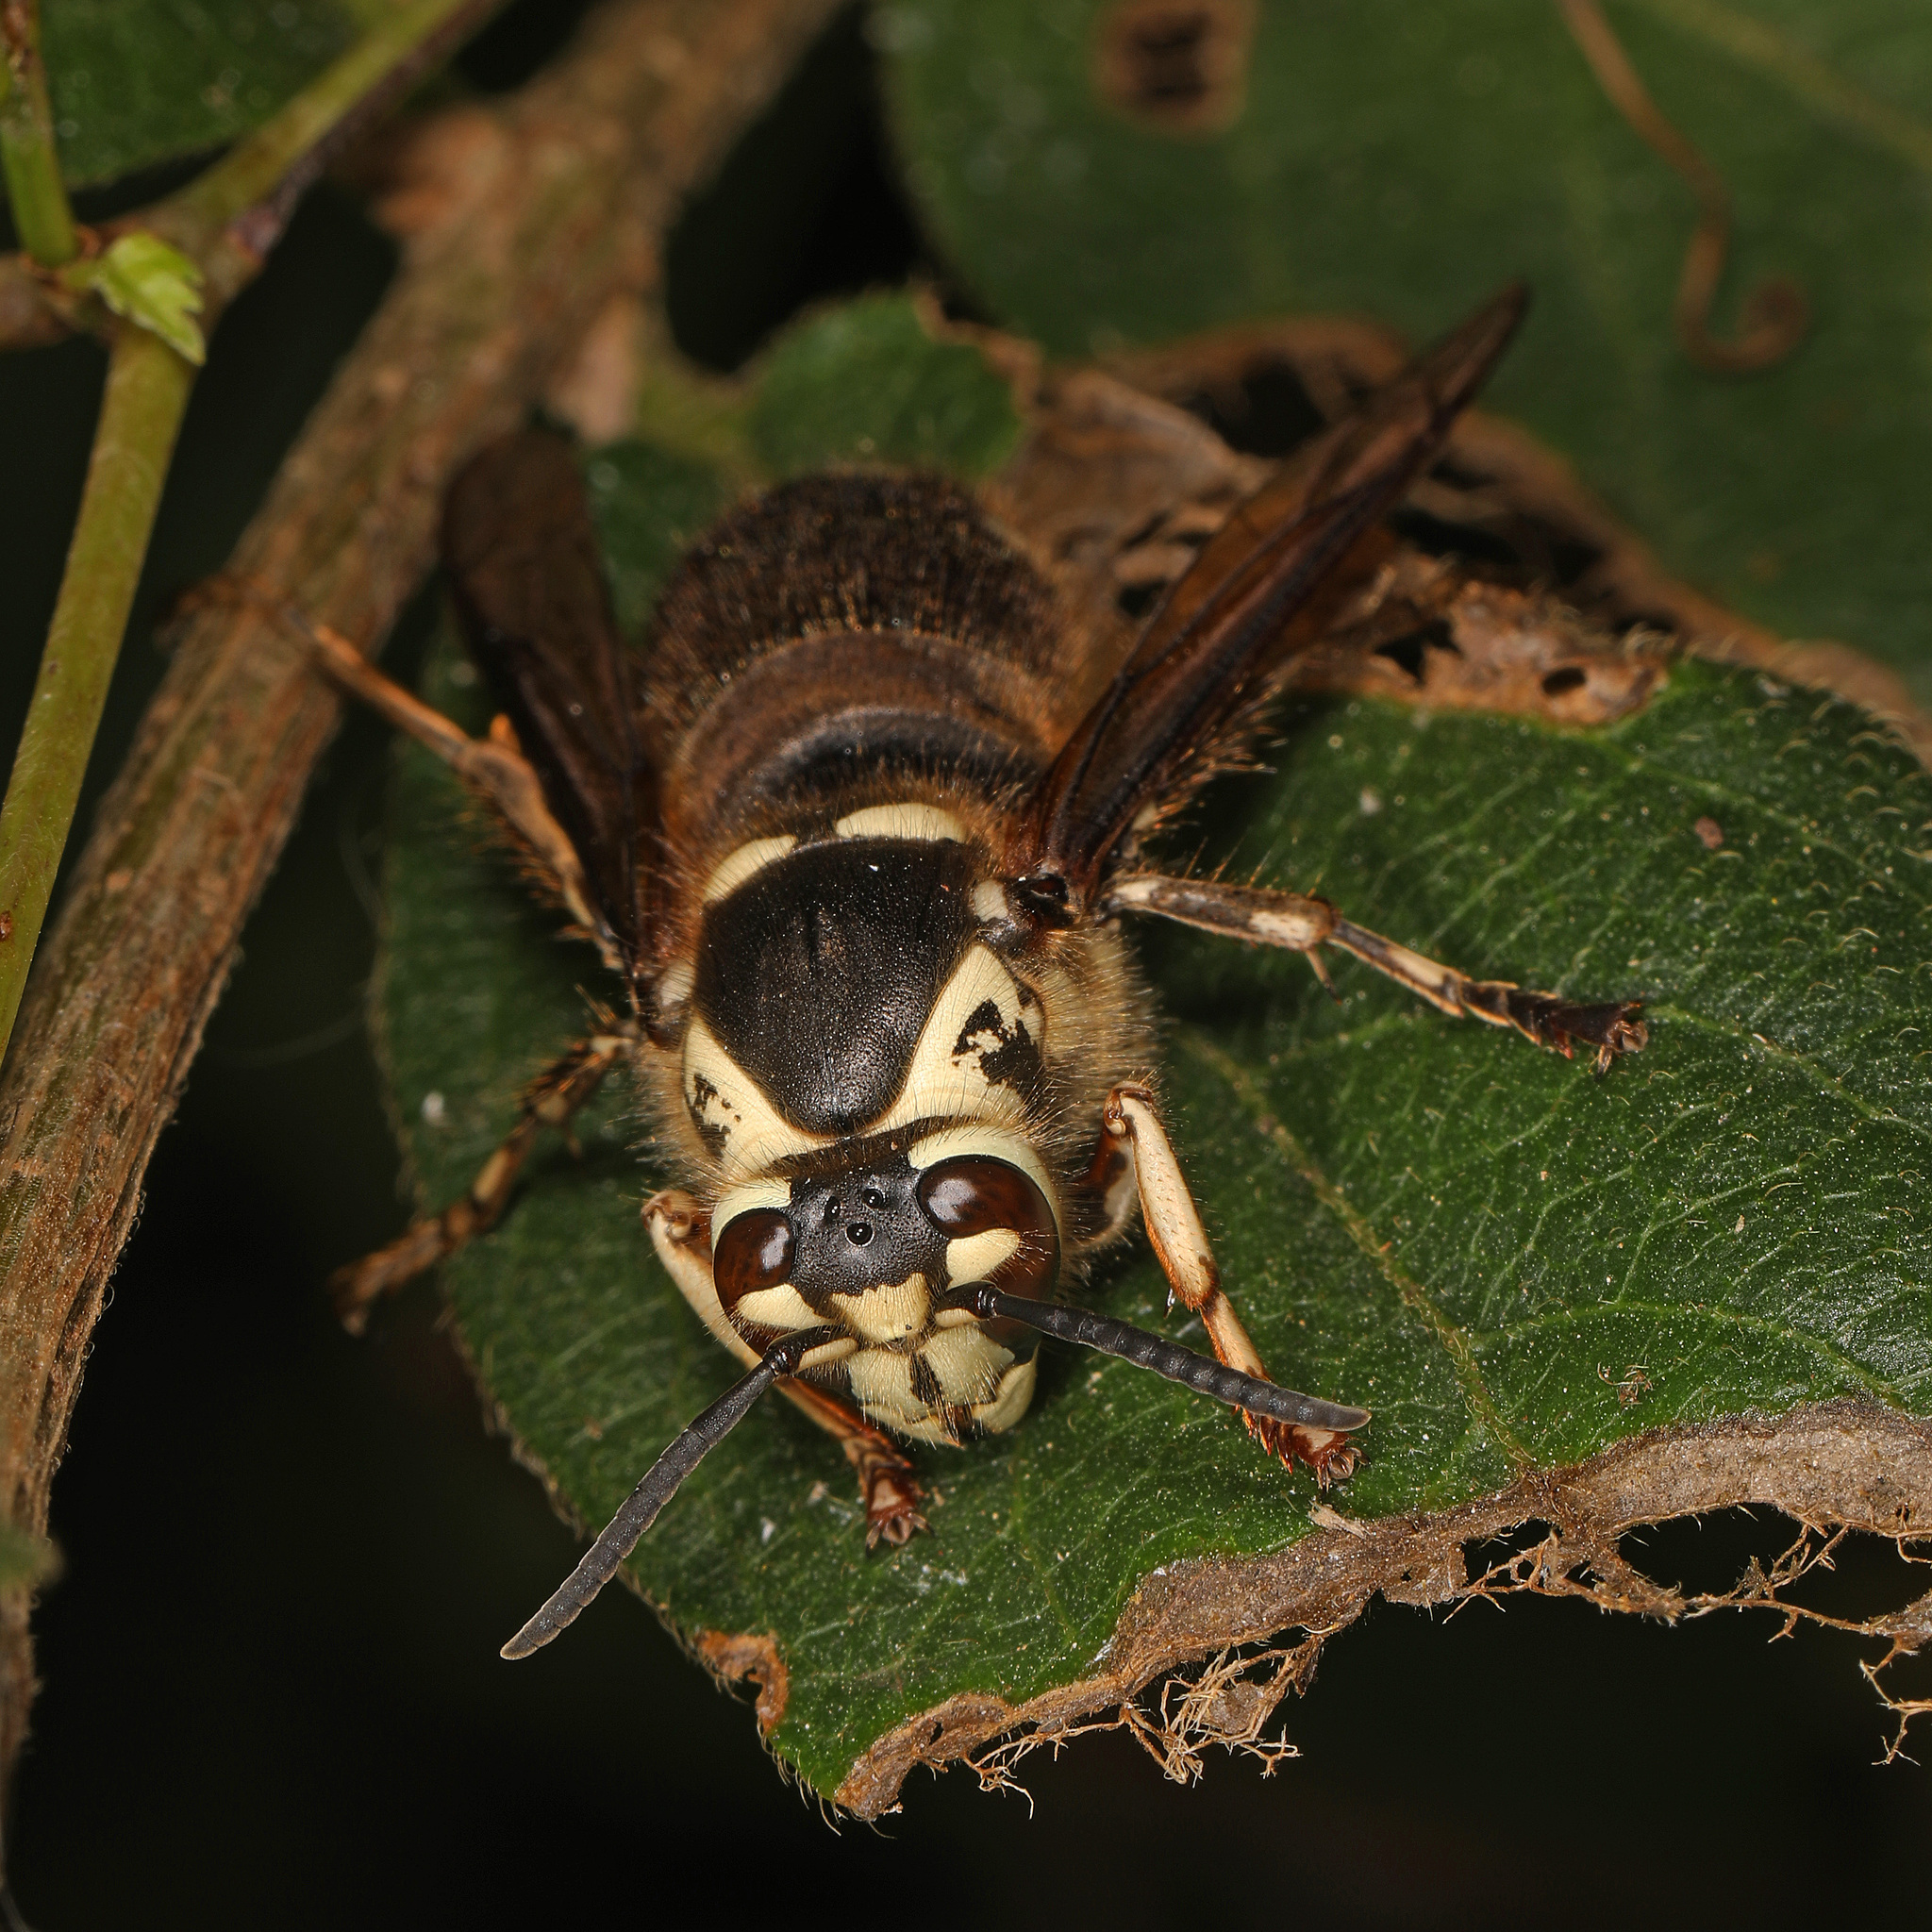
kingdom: Animalia
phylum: Arthropoda
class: Insecta
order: Hymenoptera
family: Vespidae
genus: Dolichovespula
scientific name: Dolichovespula maculata
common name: Bald-faced hornet
